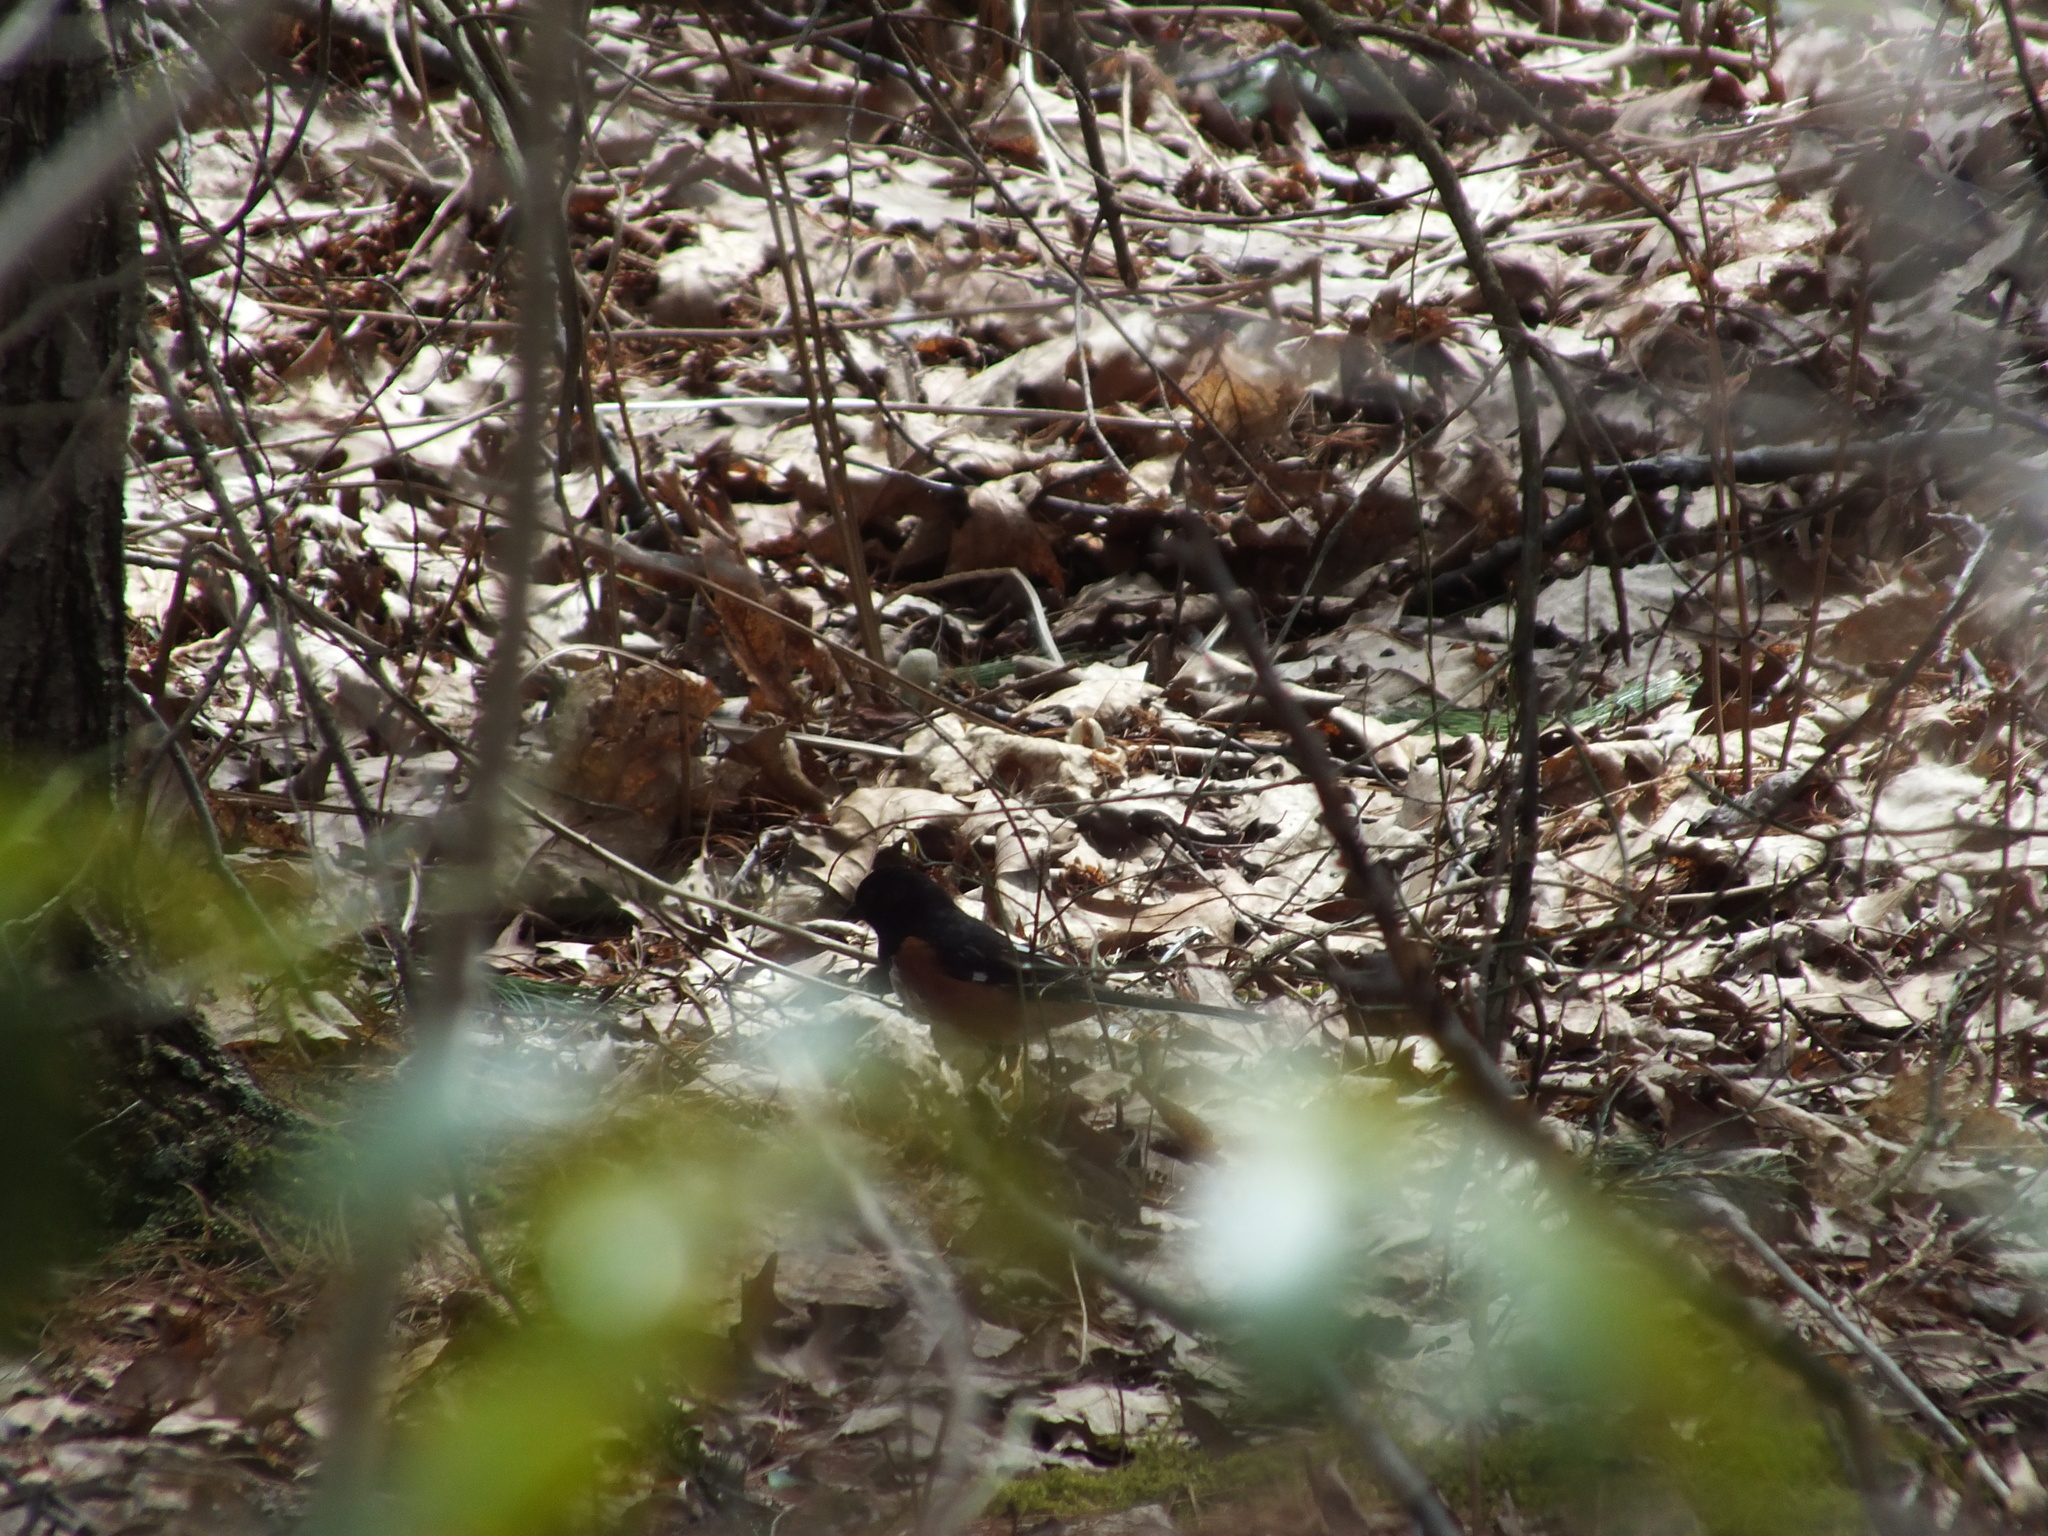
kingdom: Animalia
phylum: Chordata
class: Aves
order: Passeriformes
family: Passerellidae
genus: Pipilo
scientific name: Pipilo erythrophthalmus
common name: Eastern towhee
